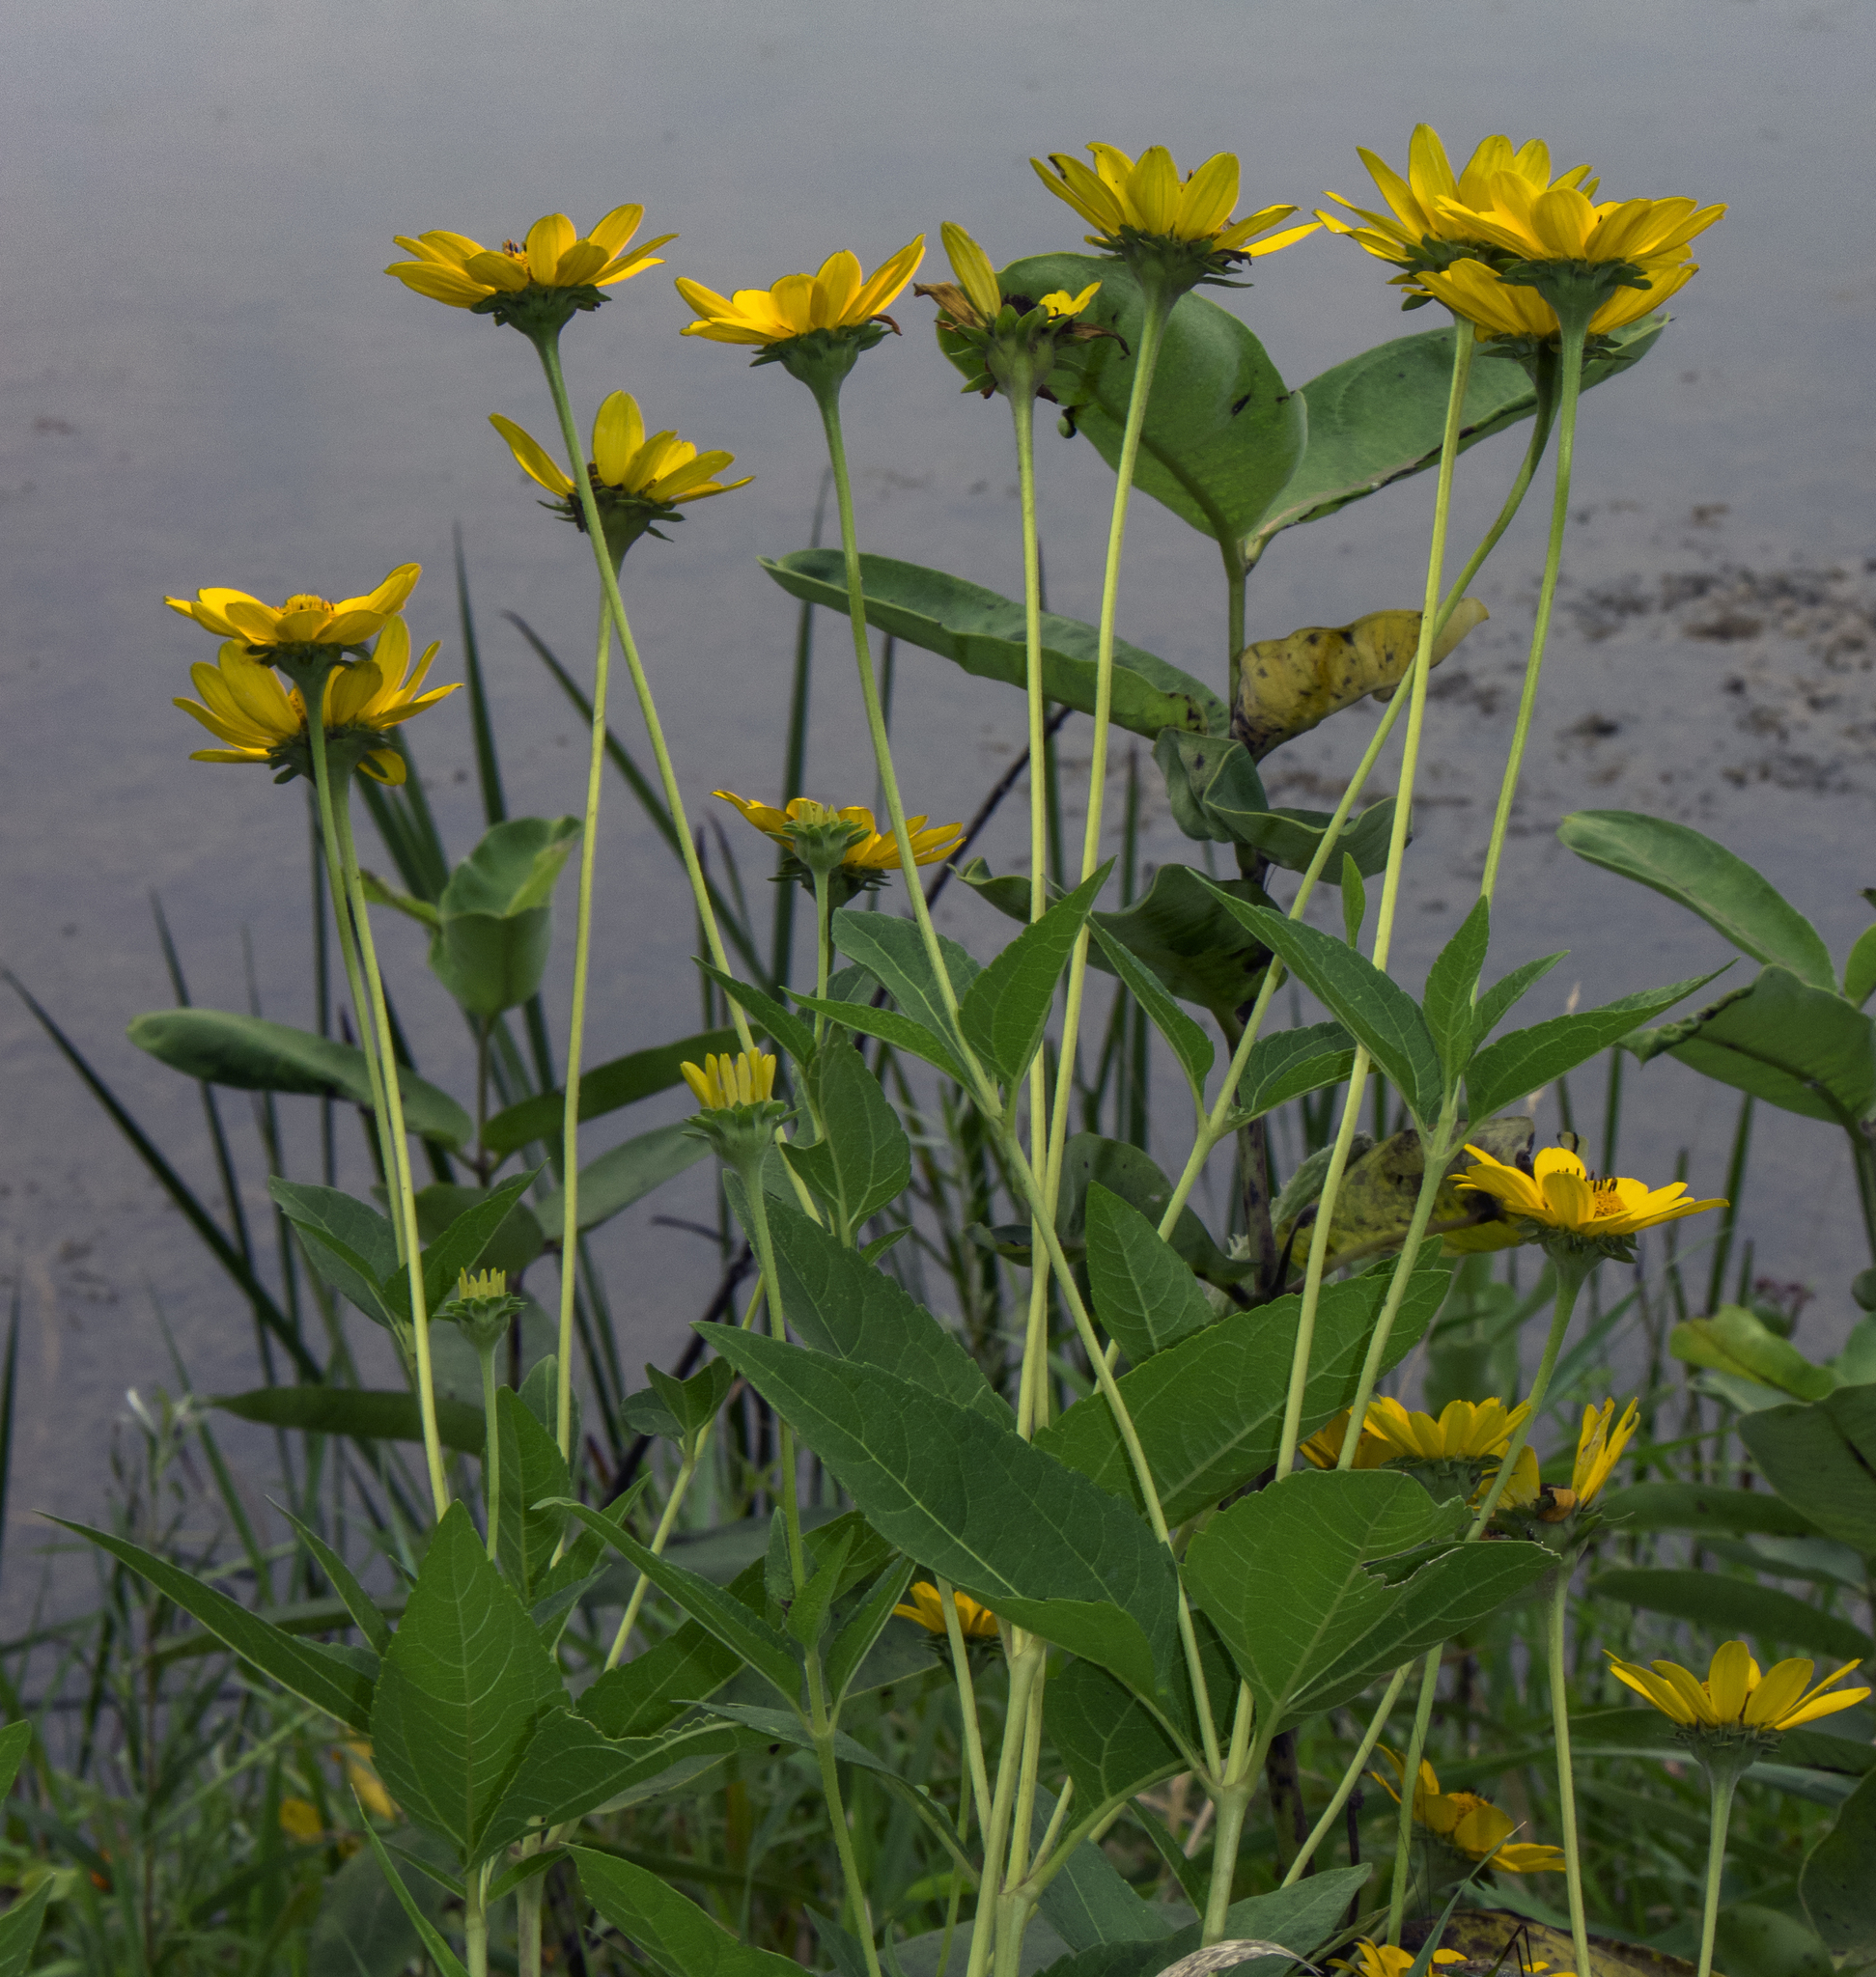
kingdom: Plantae
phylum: Tracheophyta
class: Magnoliopsida
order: Asterales
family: Asteraceae
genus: Heliopsis
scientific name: Heliopsis helianthoides
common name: False sunflower
